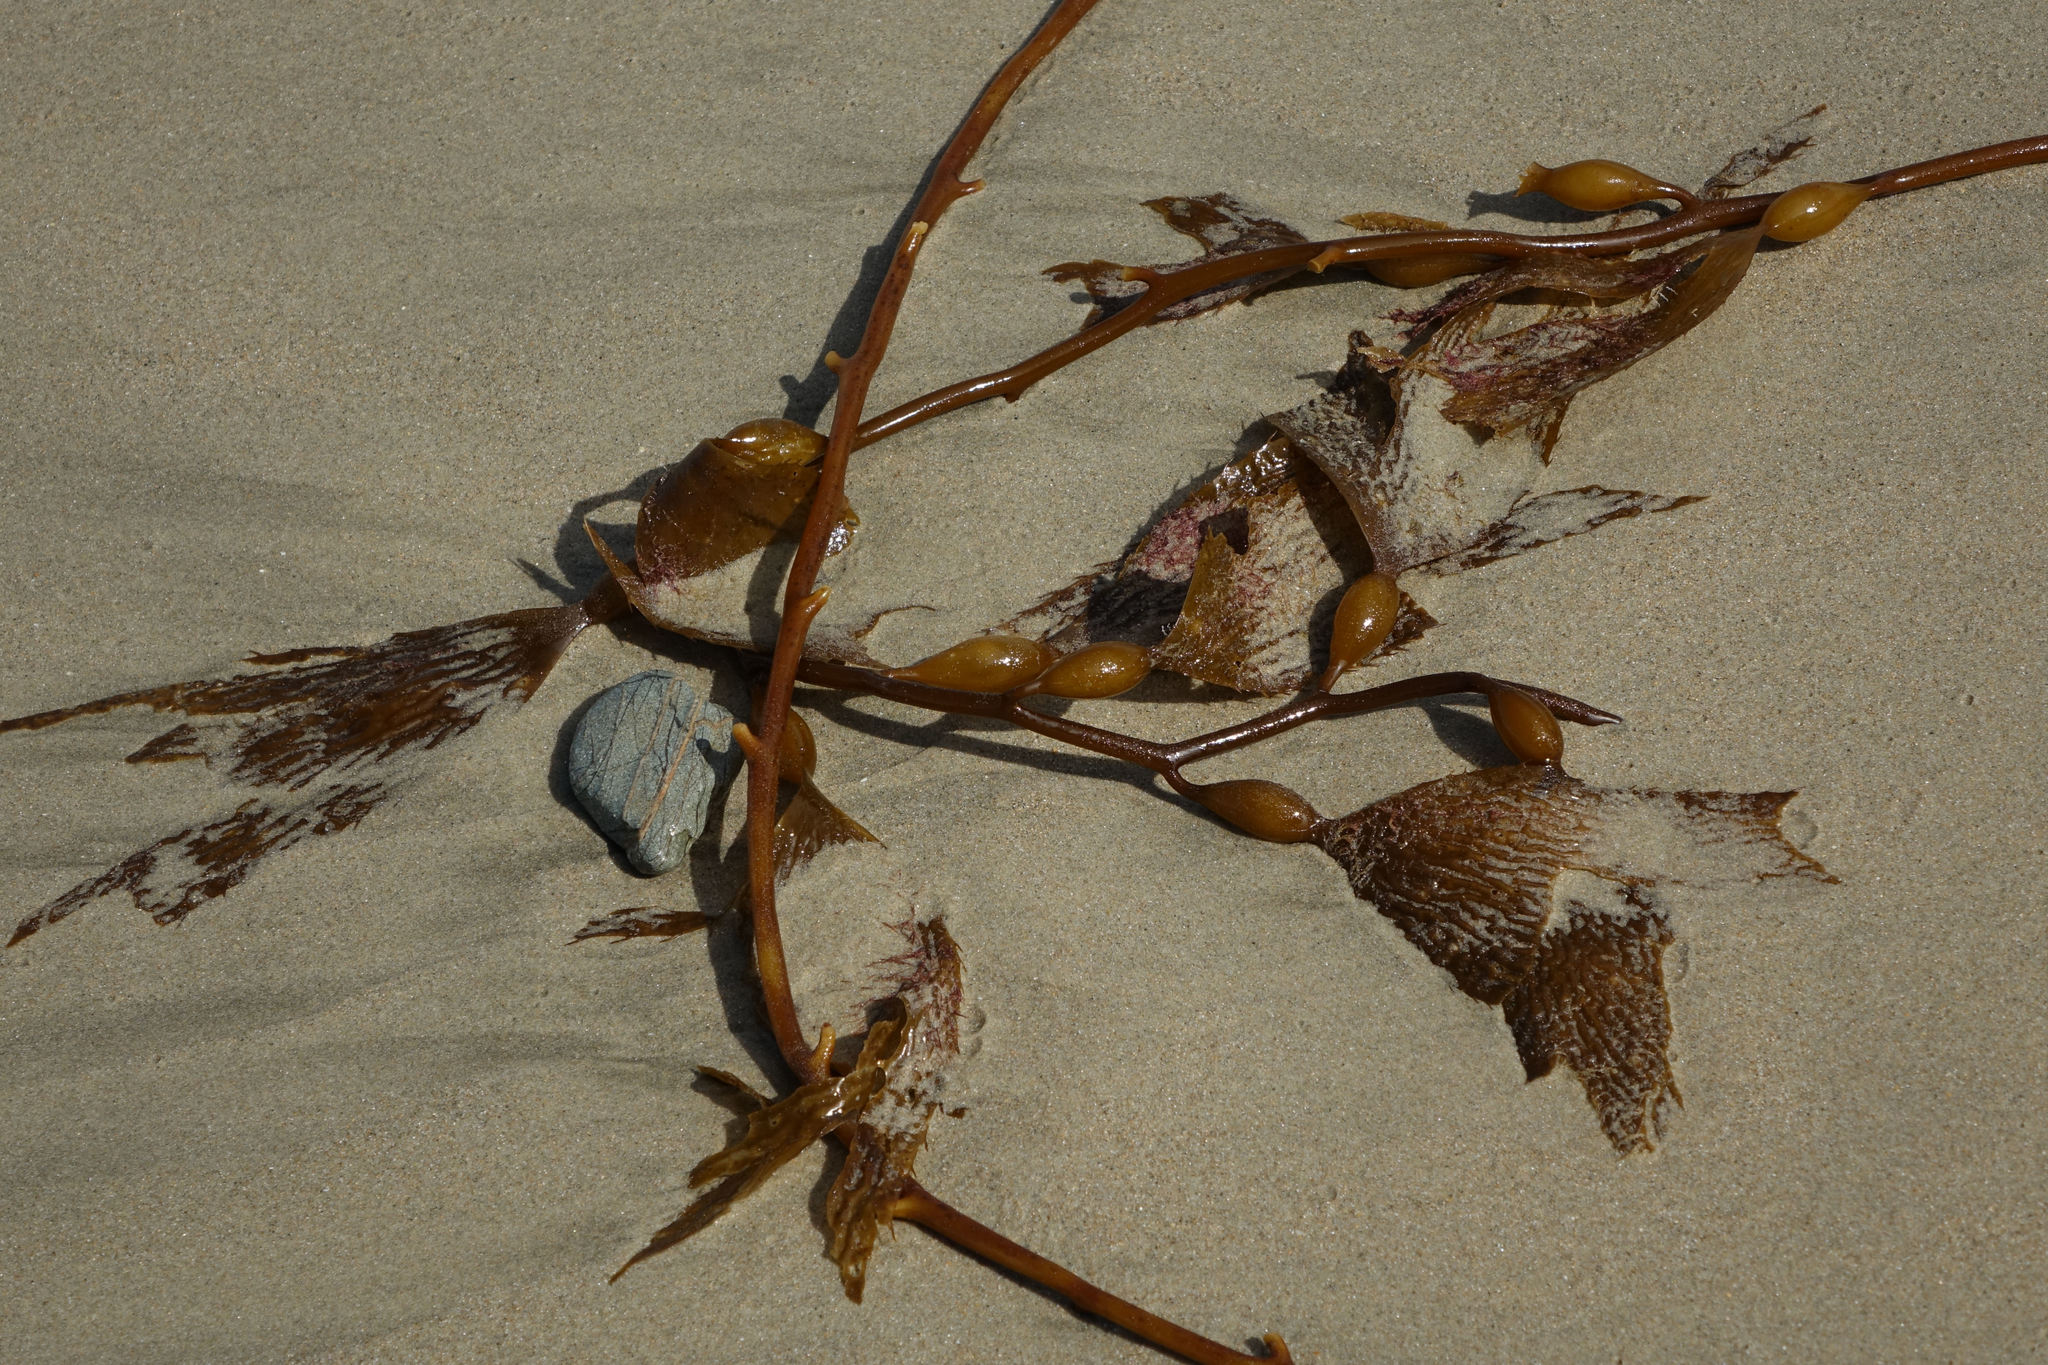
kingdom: Chromista
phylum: Ochrophyta
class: Phaeophyceae
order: Laminariales
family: Laminariaceae
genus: Macrocystis
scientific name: Macrocystis pyrifera
